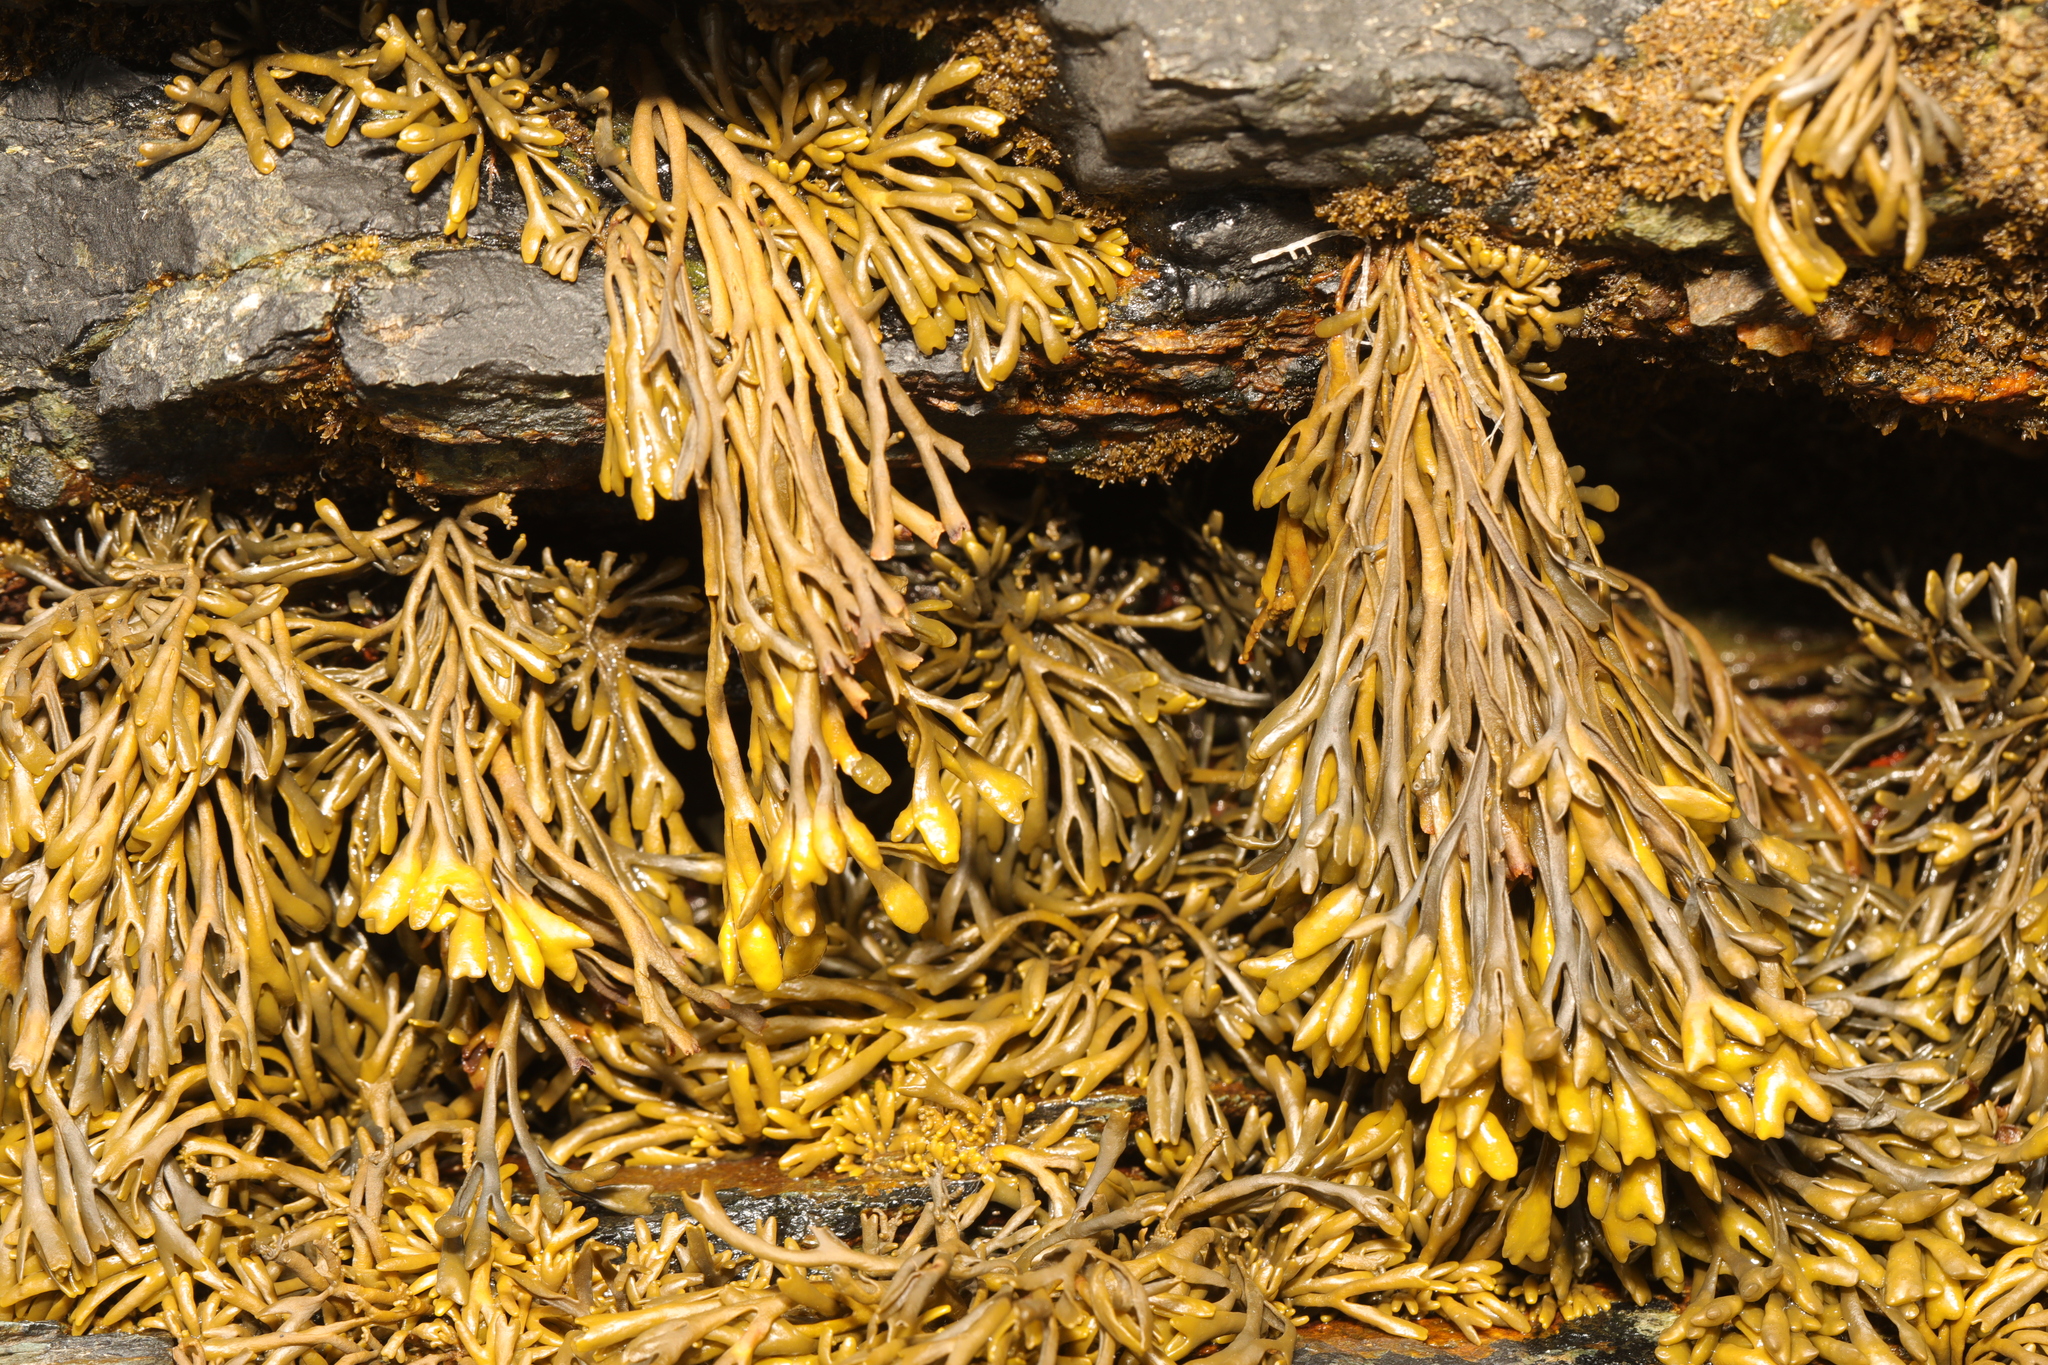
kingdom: Chromista
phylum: Ochrophyta
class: Phaeophyceae
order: Fucales
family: Fucaceae
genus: Pelvetia
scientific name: Pelvetia canaliculata
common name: Channelled wrack
